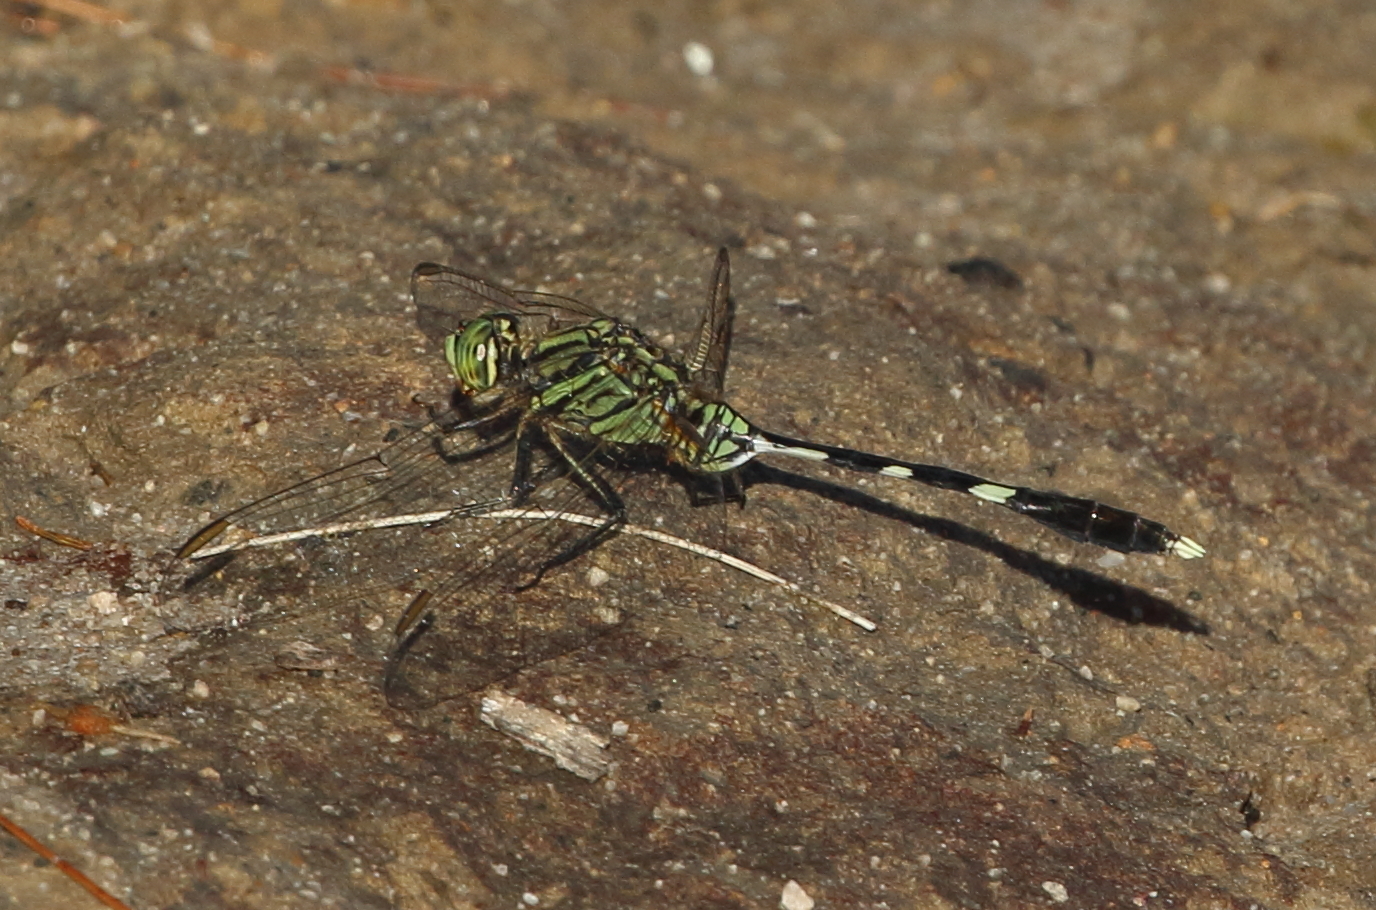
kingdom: Animalia
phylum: Arthropoda
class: Insecta
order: Odonata
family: Libellulidae
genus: Orthetrum
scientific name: Orthetrum sabina
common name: Slender skimmer
